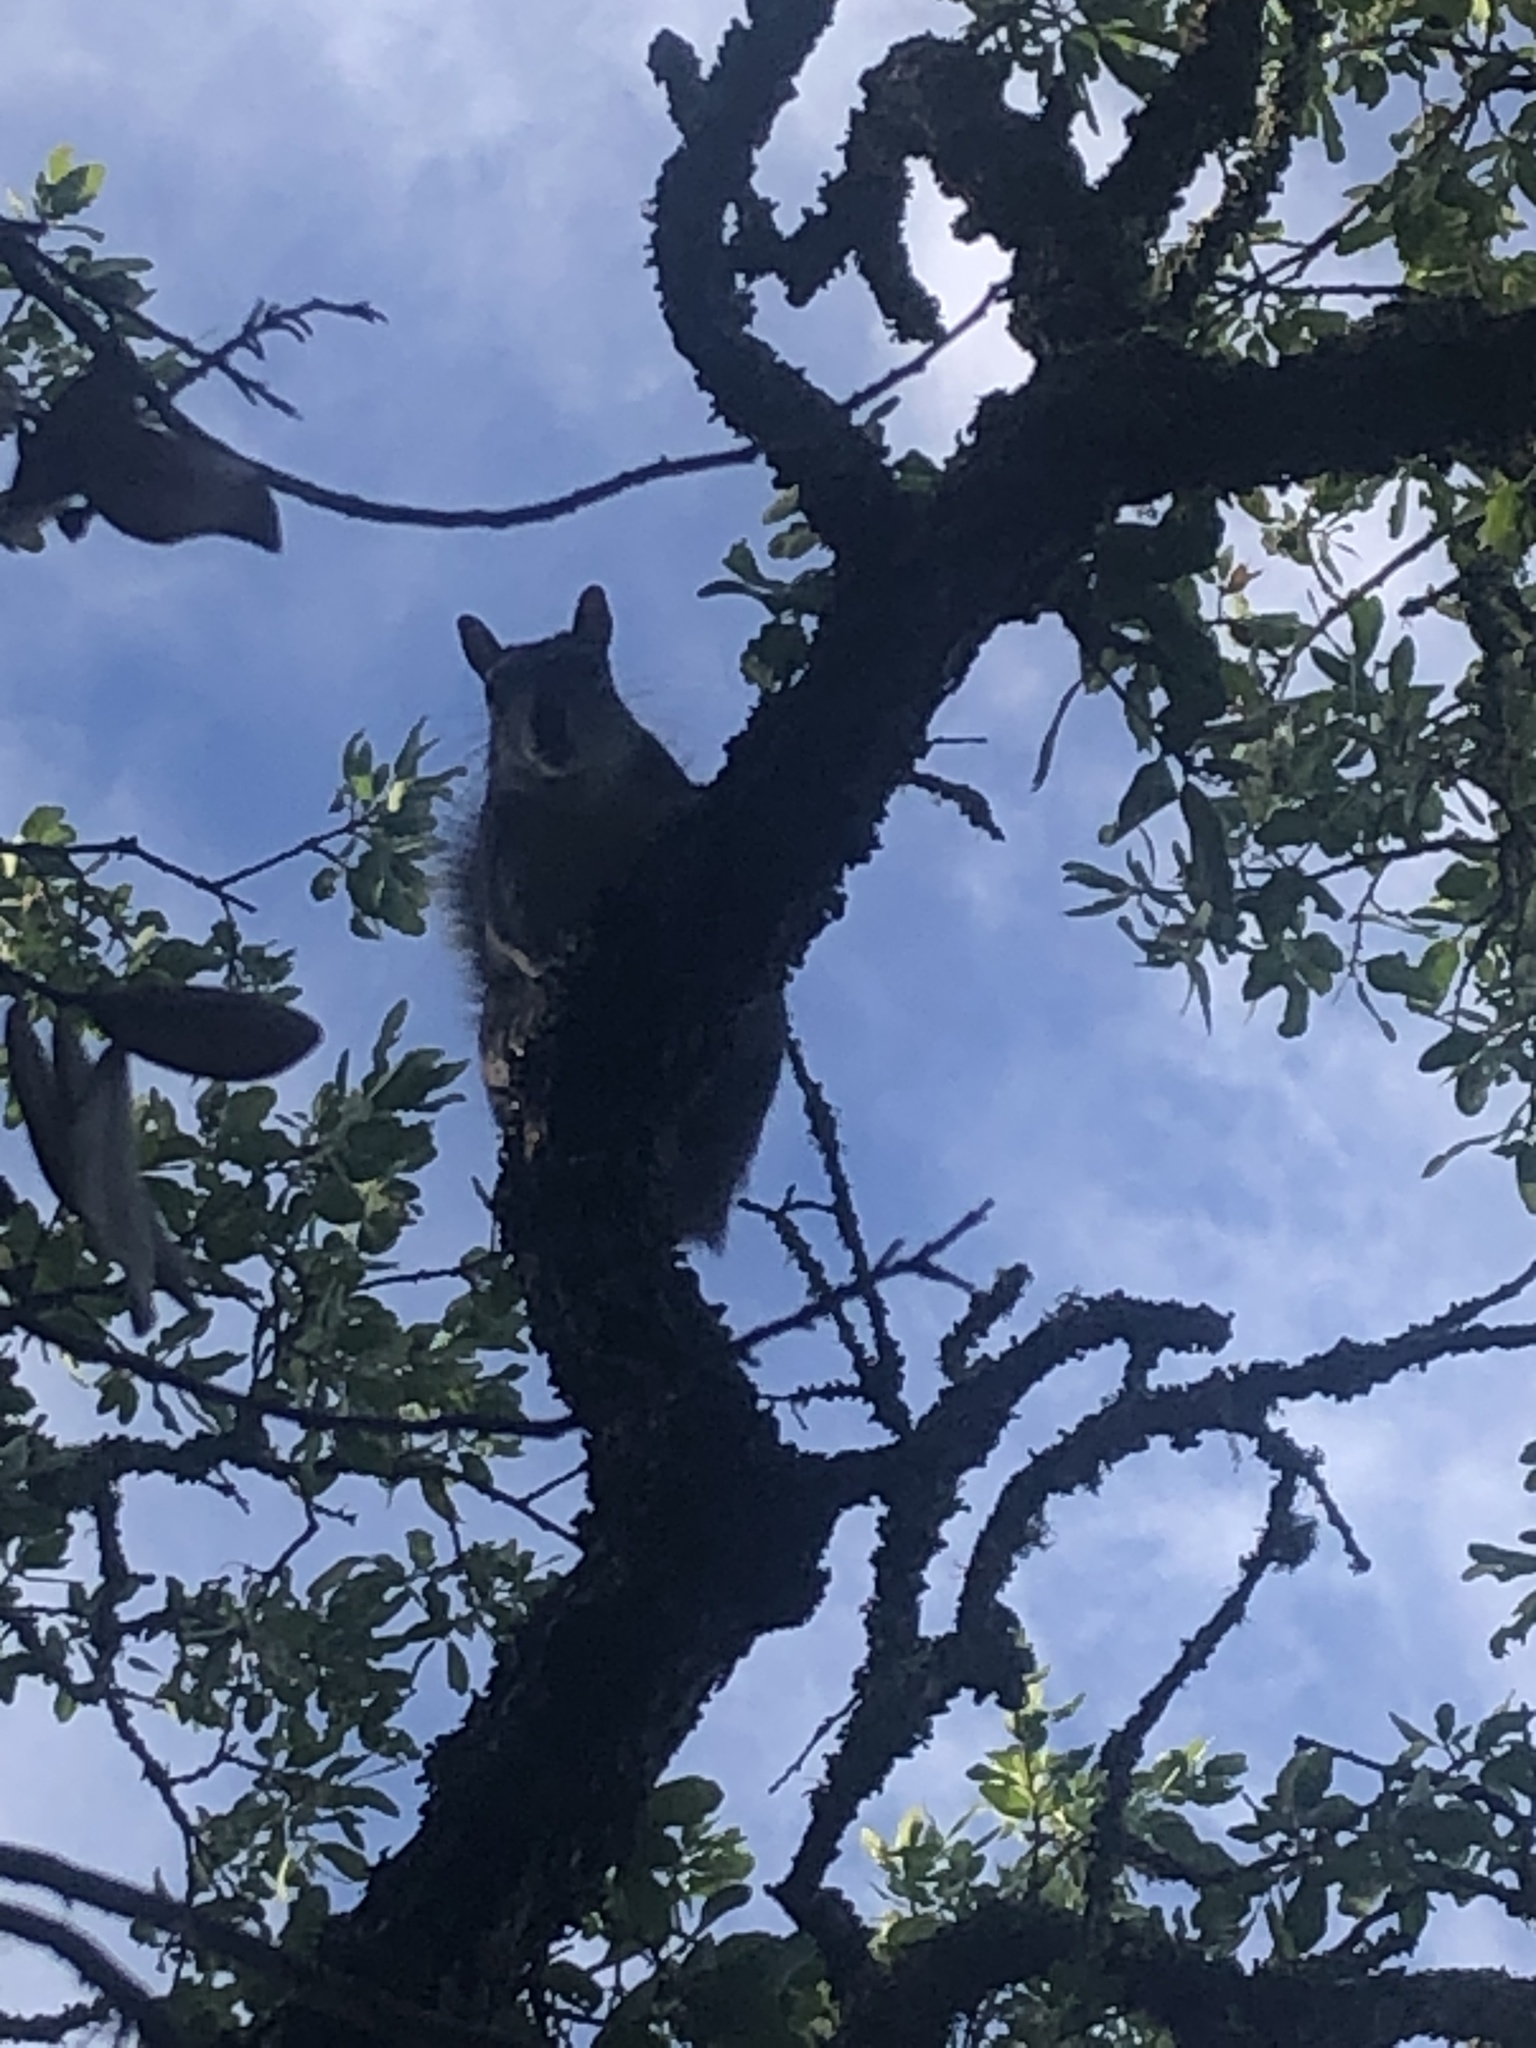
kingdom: Animalia
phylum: Chordata
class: Mammalia
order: Rodentia
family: Sciuridae
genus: Sciurus
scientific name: Sciurus griseus
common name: Western gray squirrel
